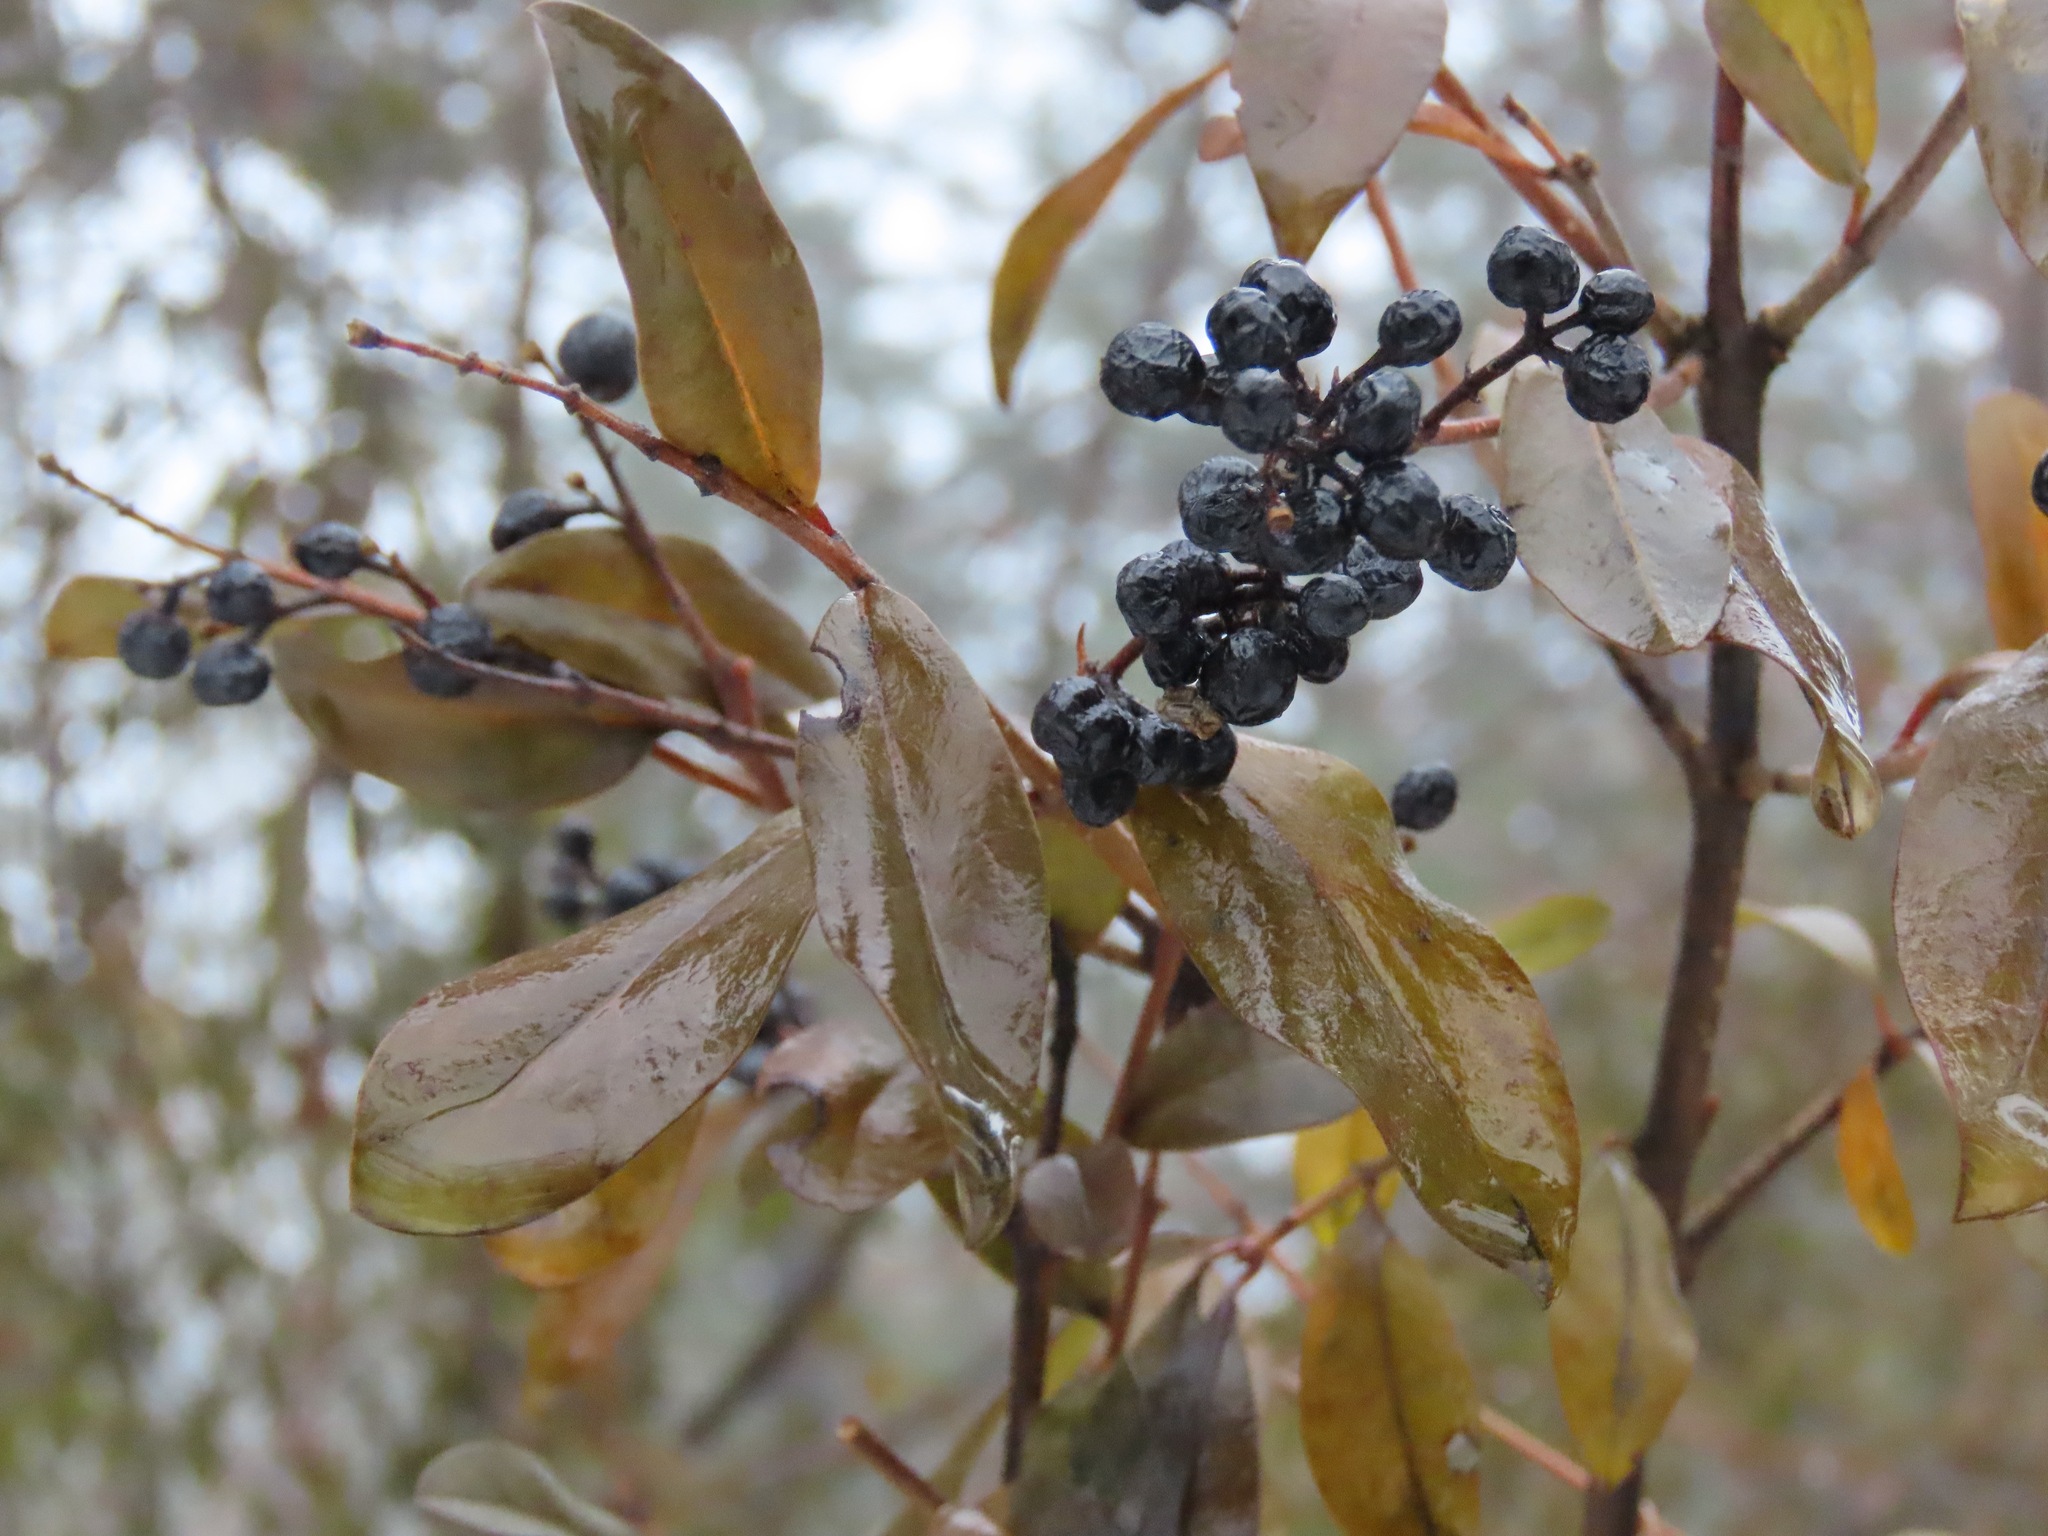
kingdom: Plantae
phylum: Tracheophyta
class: Magnoliopsida
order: Lamiales
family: Oleaceae
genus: Ligustrum
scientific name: Ligustrum vulgare
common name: Wild privet
